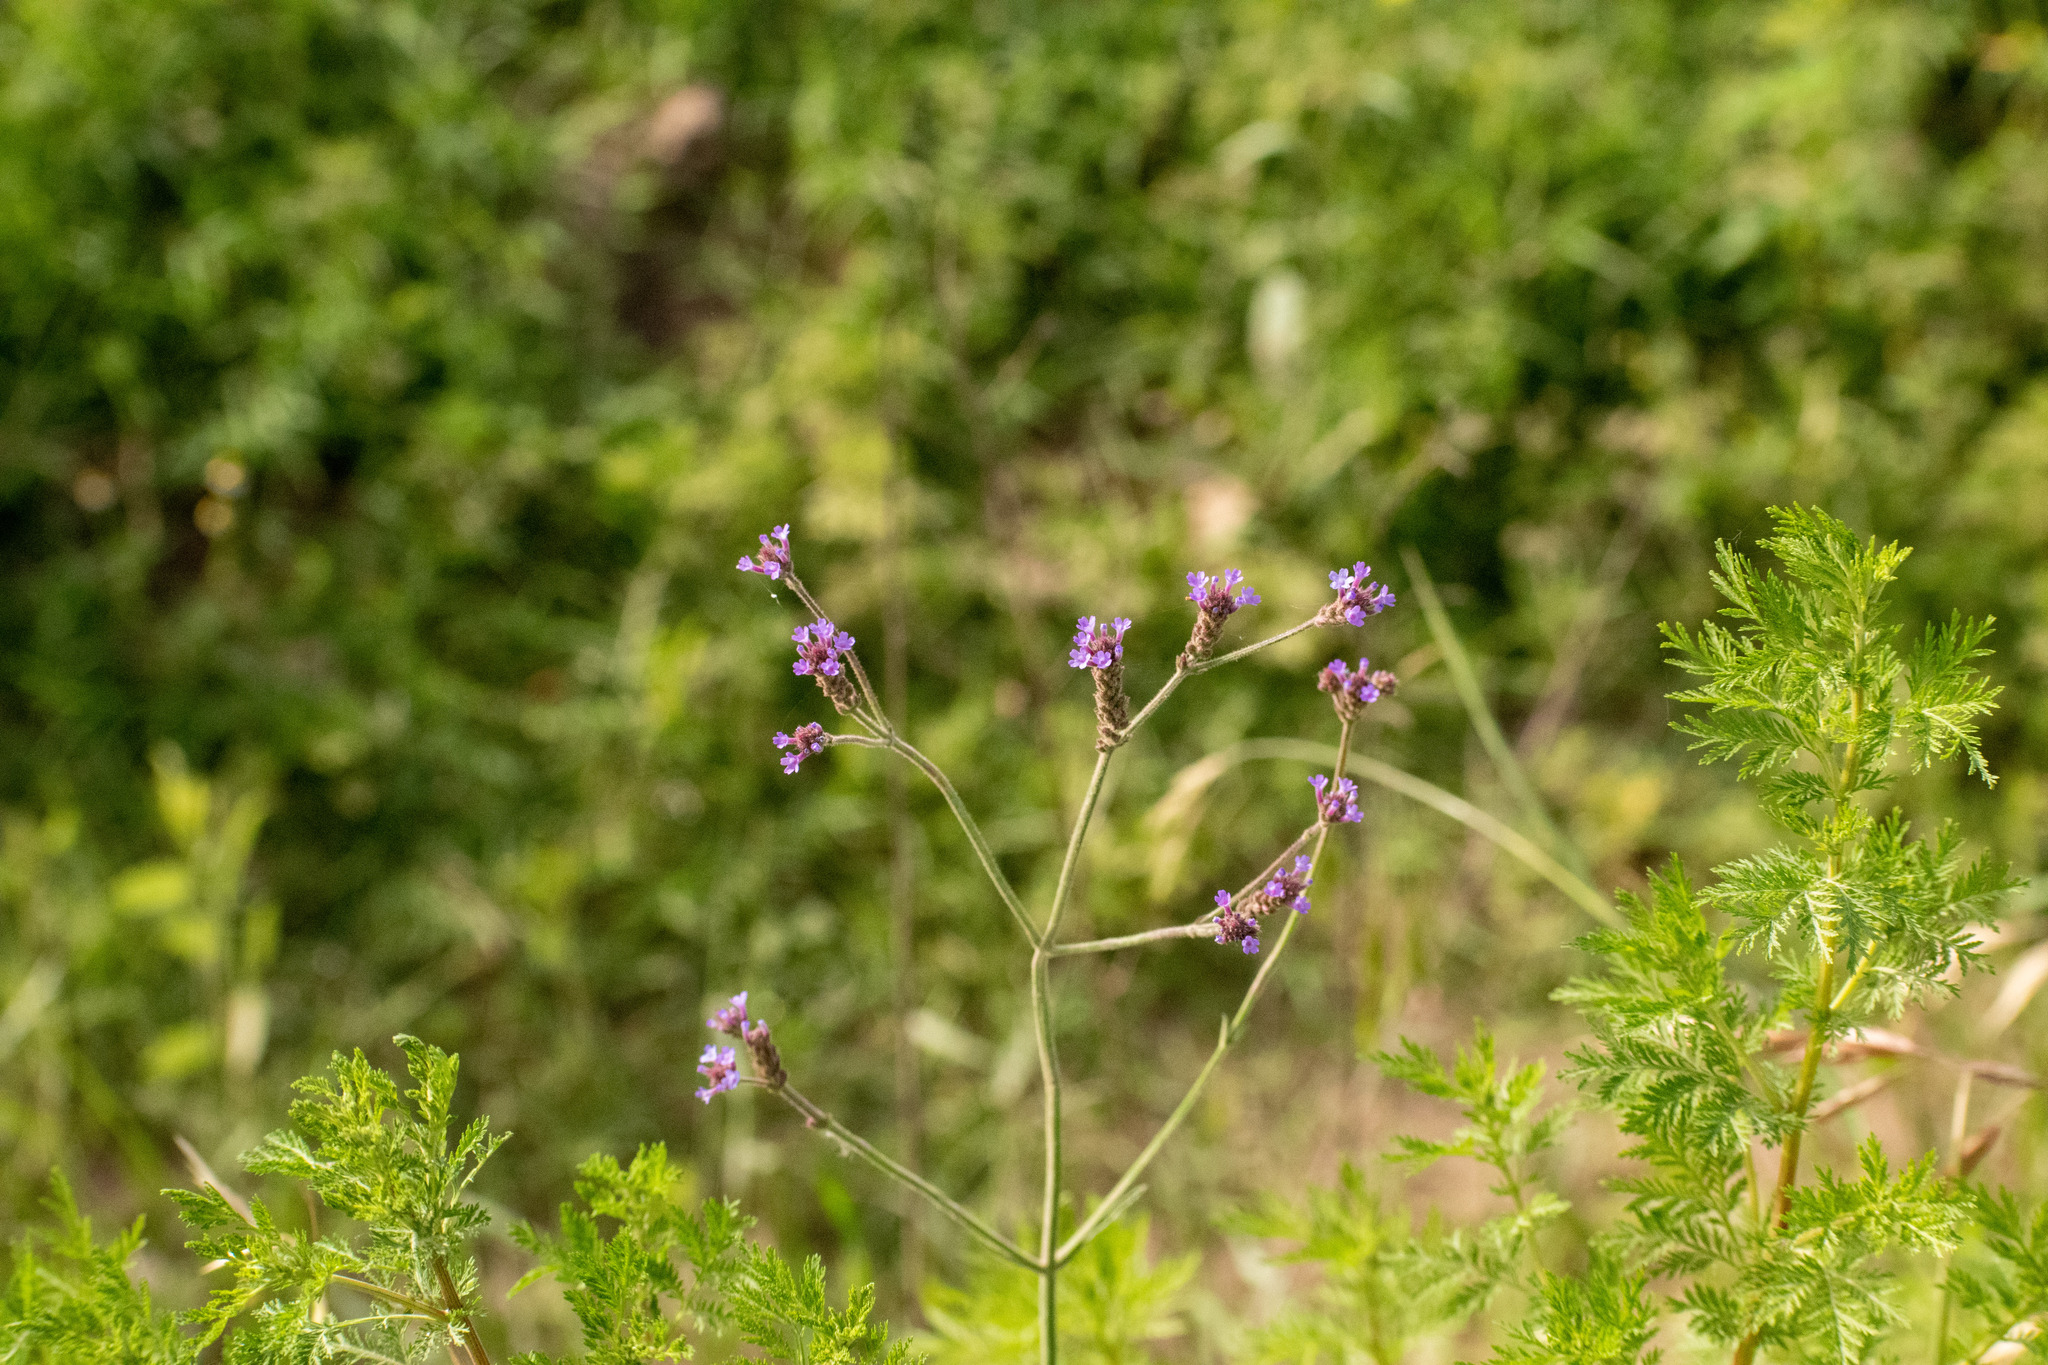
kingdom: Plantae
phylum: Tracheophyta
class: Magnoliopsida
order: Lamiales
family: Verbenaceae
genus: Verbena
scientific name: Verbena litoralis
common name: Seashore vervain
